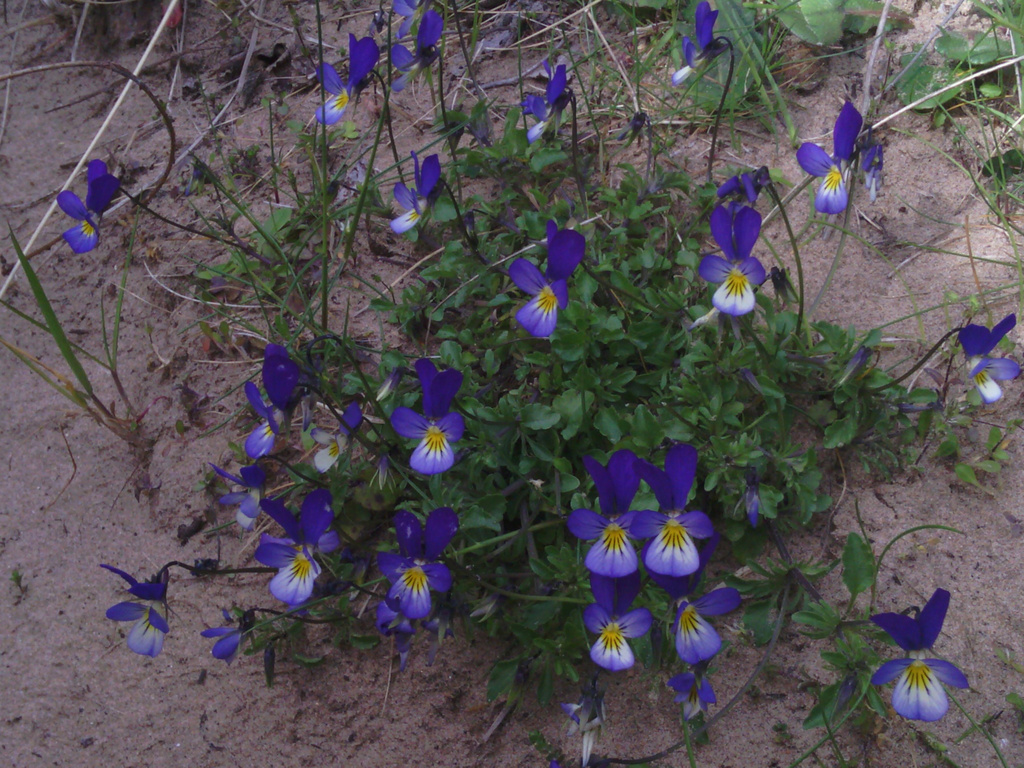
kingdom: Plantae
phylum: Tracheophyta
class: Magnoliopsida
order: Malpighiales
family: Violaceae
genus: Viola
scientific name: Viola tricolor
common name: Pansy
